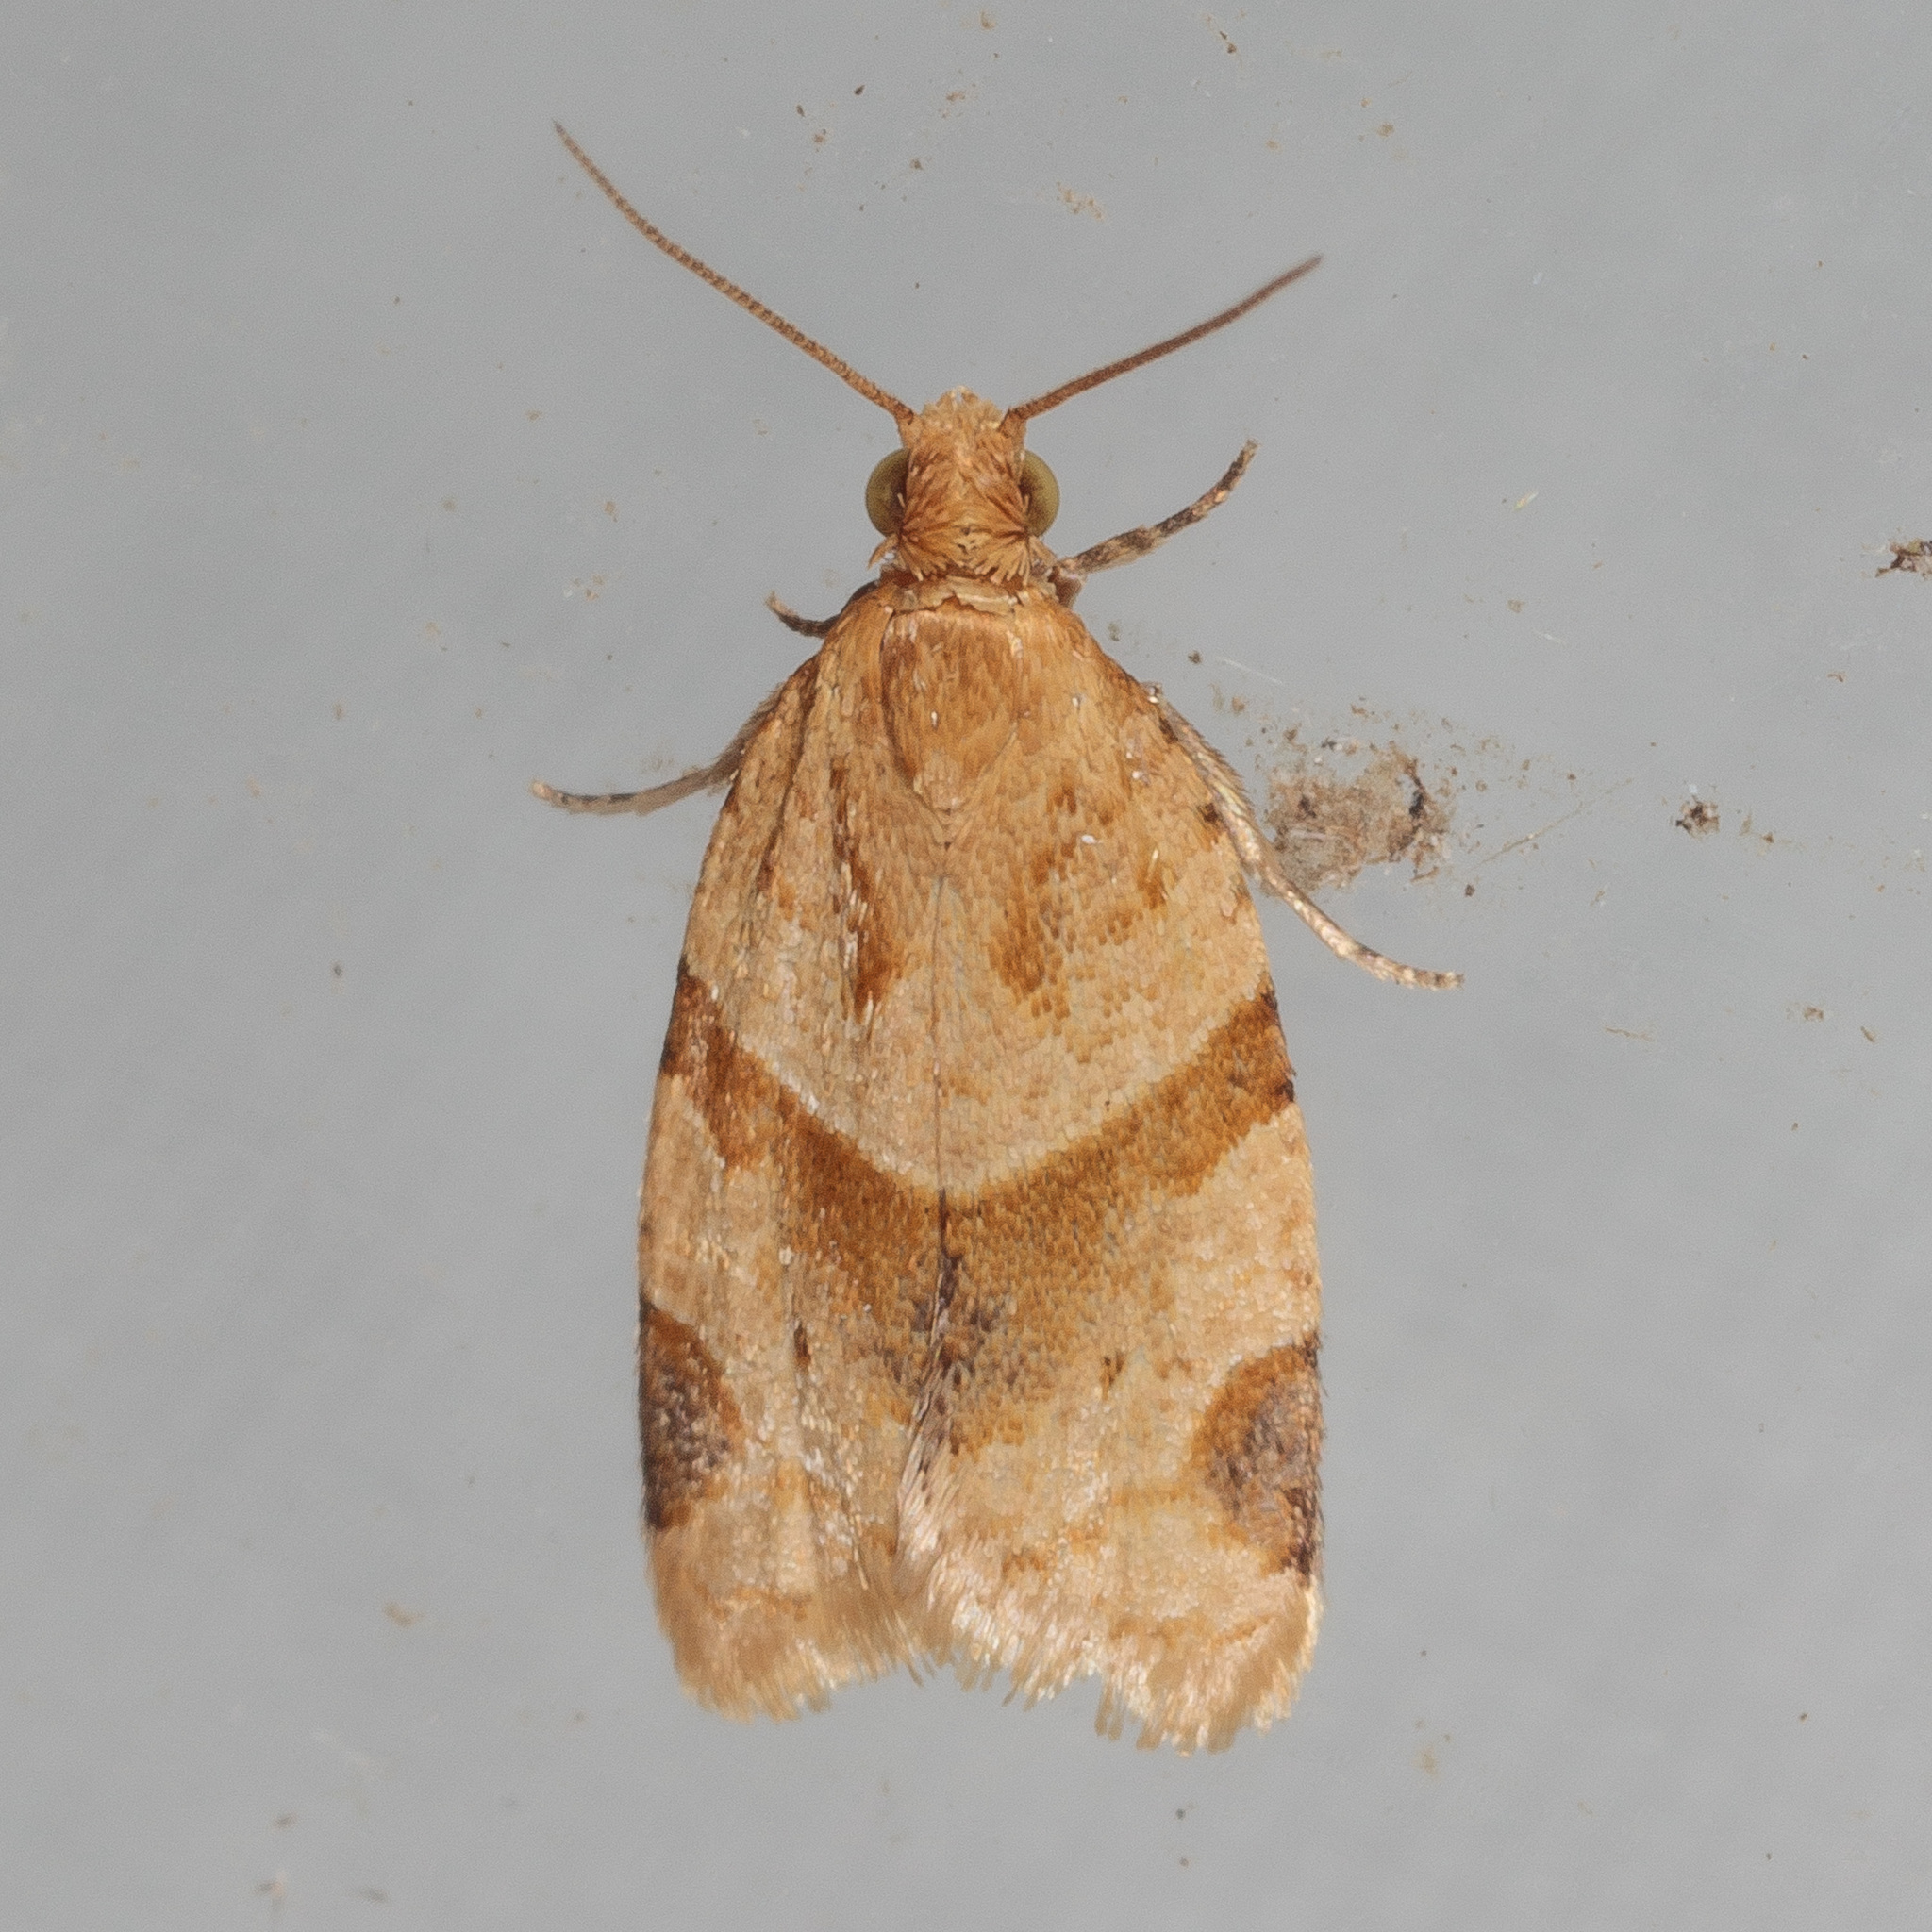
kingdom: Animalia
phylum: Arthropoda
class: Insecta
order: Lepidoptera
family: Tortricidae
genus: Clepsis
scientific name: Clepsis peritana
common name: Garden tortrix
